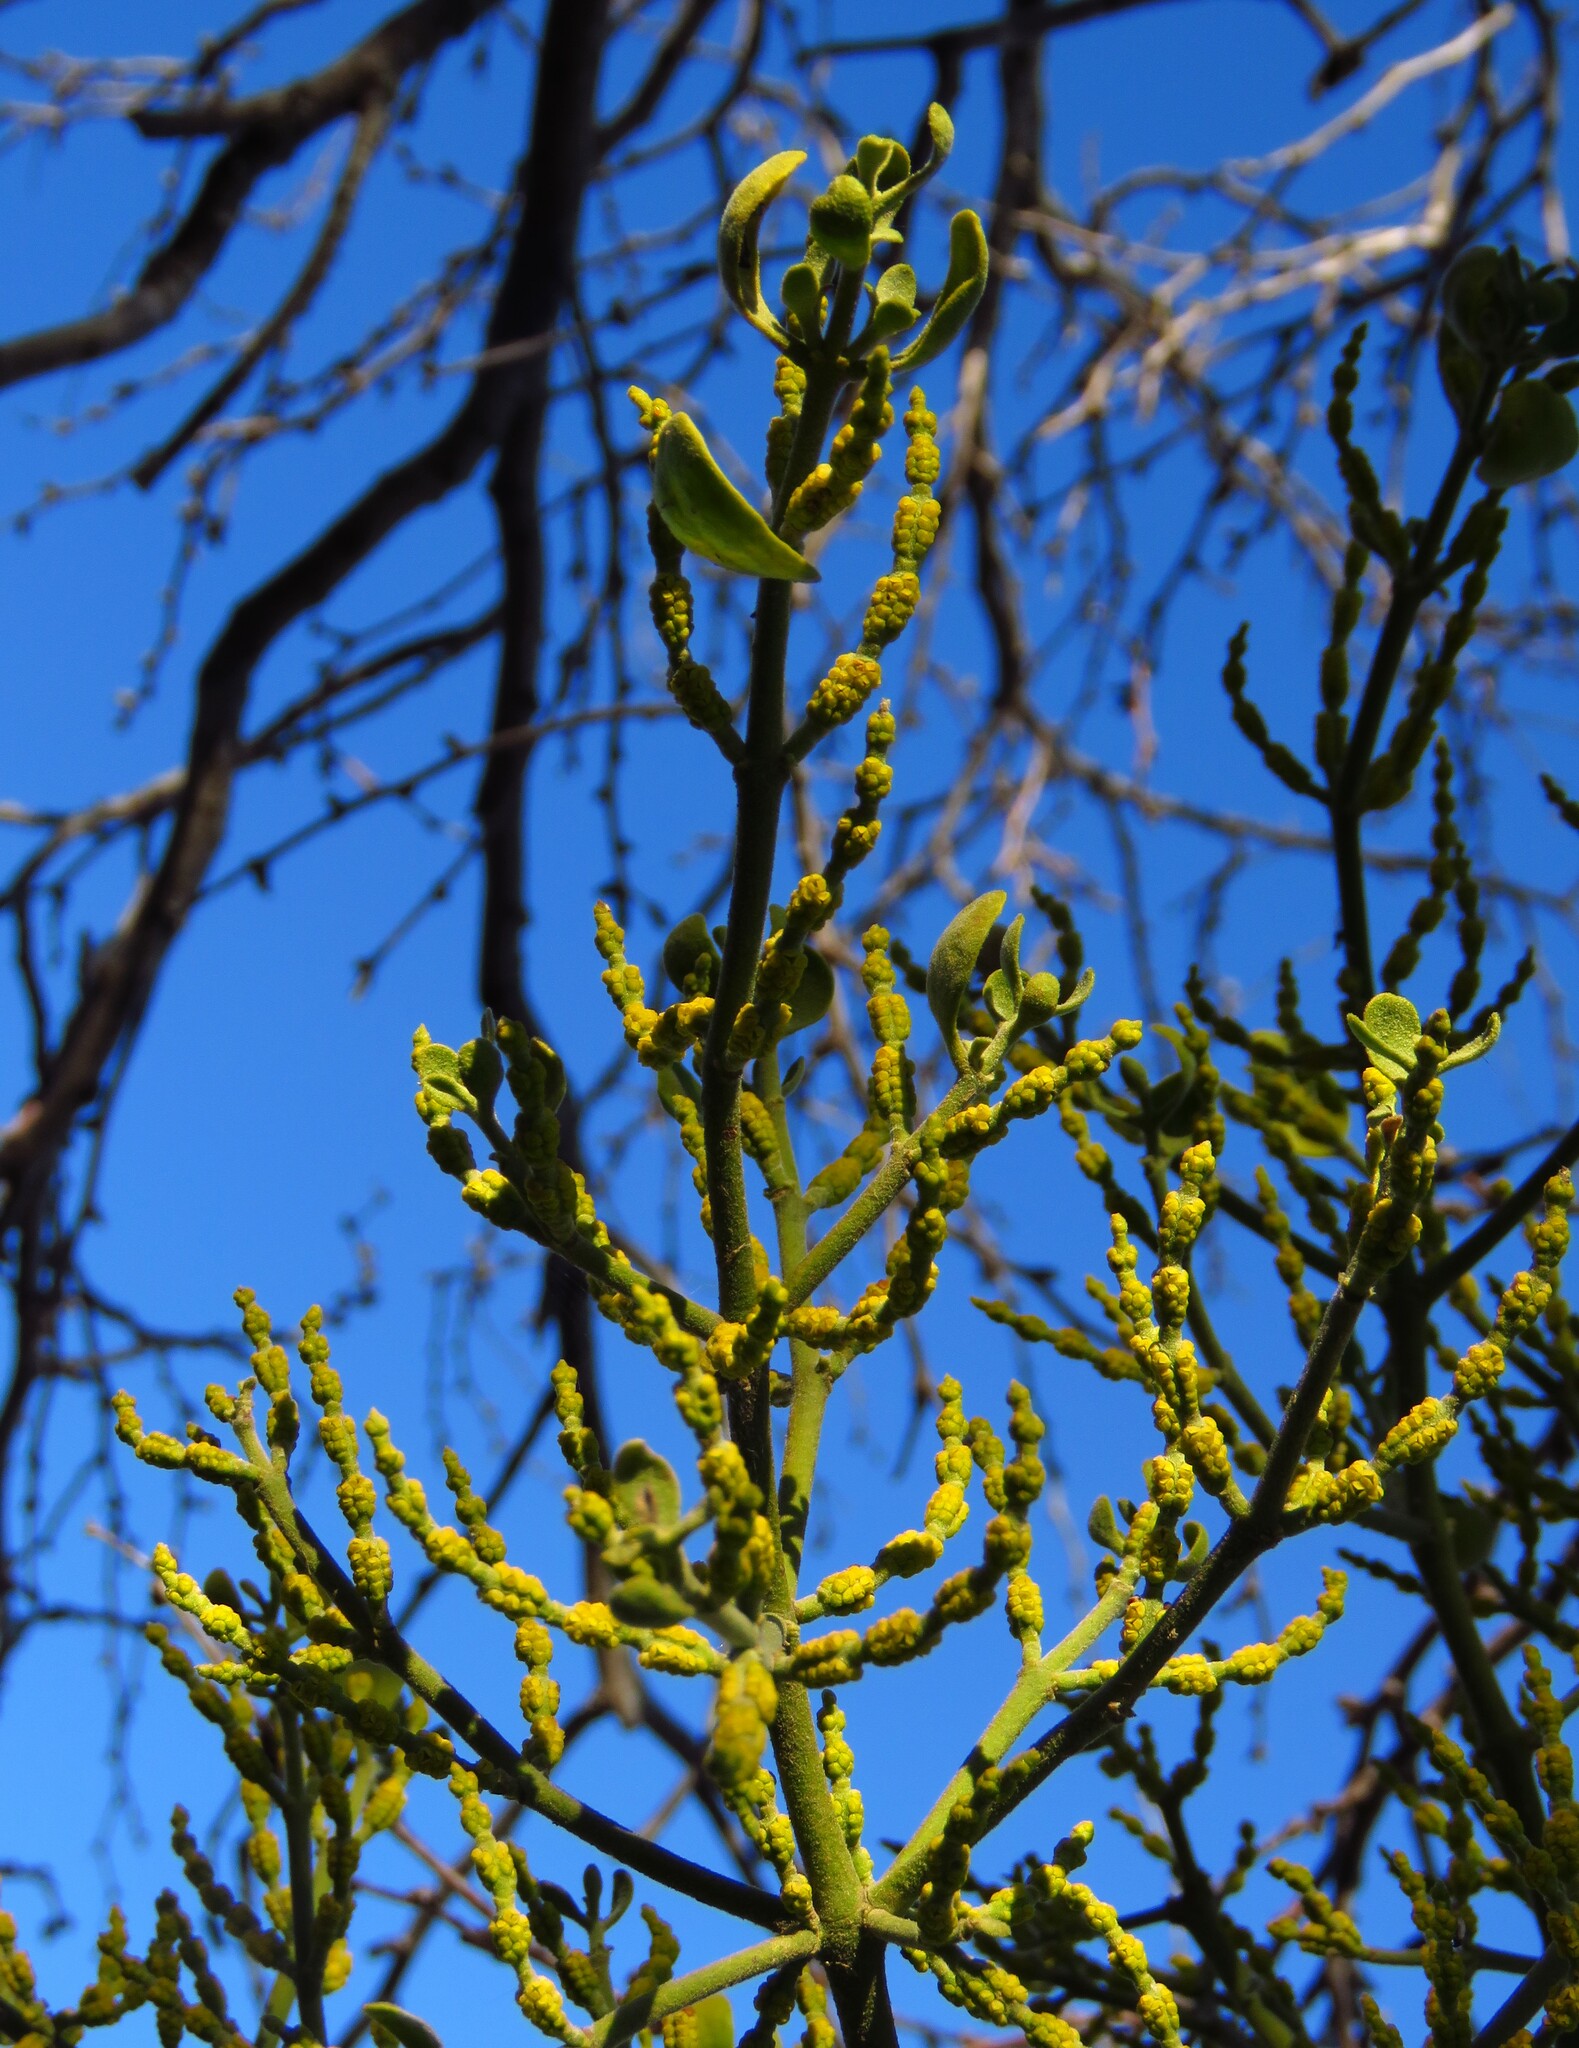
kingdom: Plantae
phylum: Tracheophyta
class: Magnoliopsida
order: Santalales
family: Viscaceae
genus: Phoradendron
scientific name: Phoradendron leucarpum
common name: Pacific mistletoe
